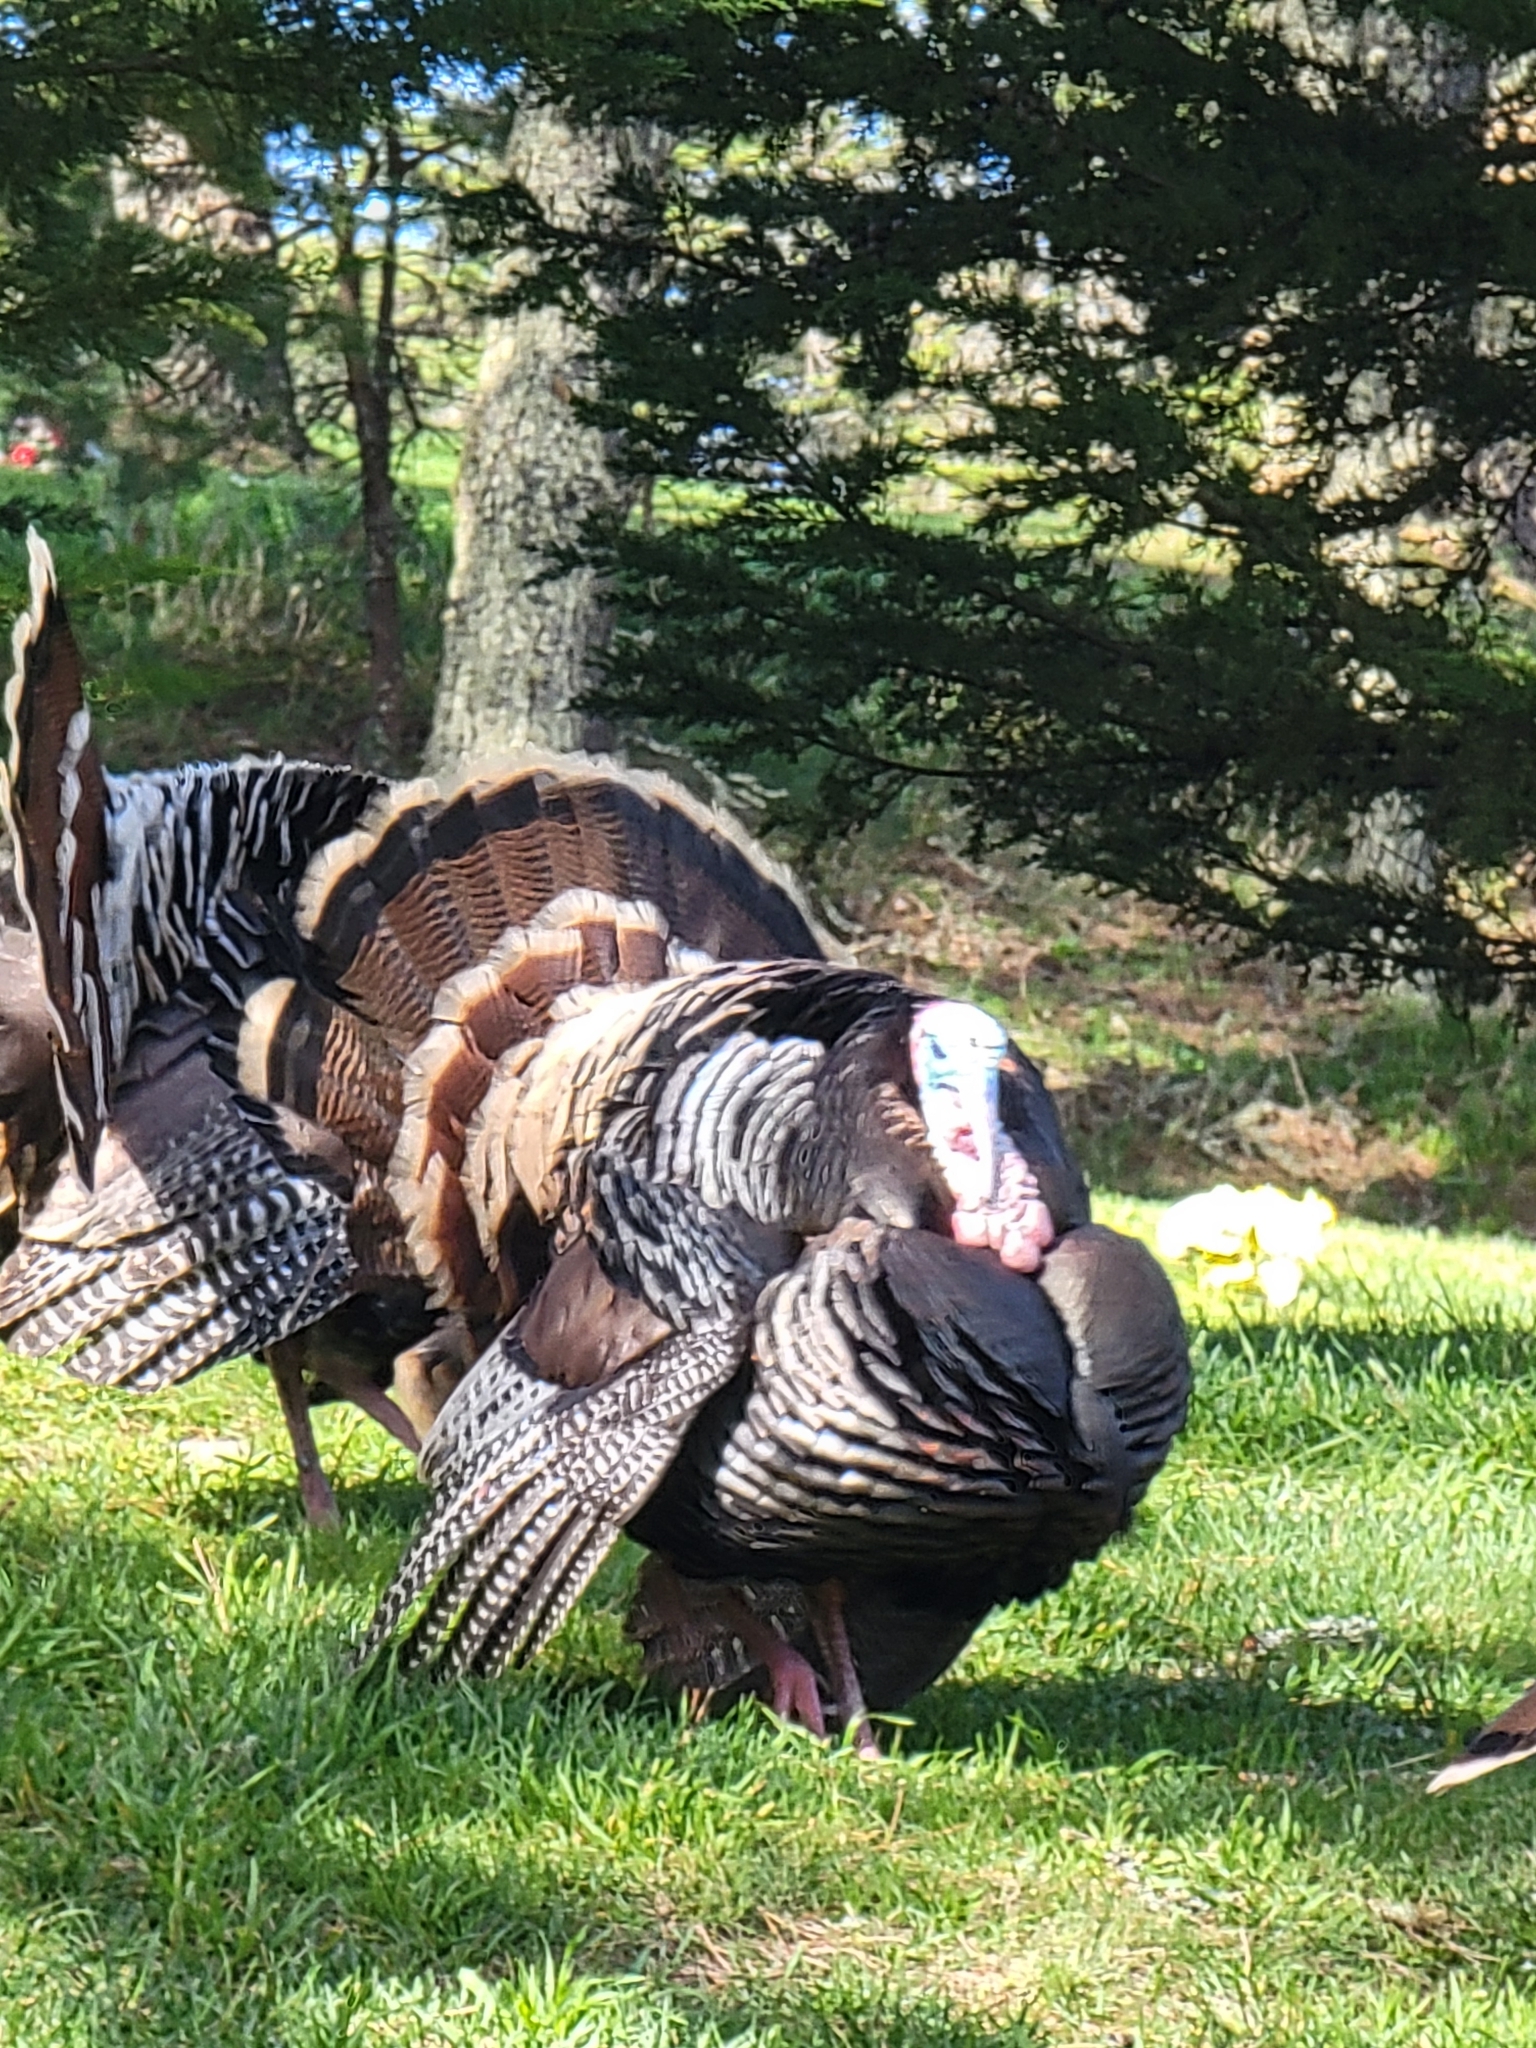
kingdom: Animalia
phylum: Chordata
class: Aves
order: Galliformes
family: Phasianidae
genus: Meleagris
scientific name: Meleagris gallopavo
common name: Wild turkey
